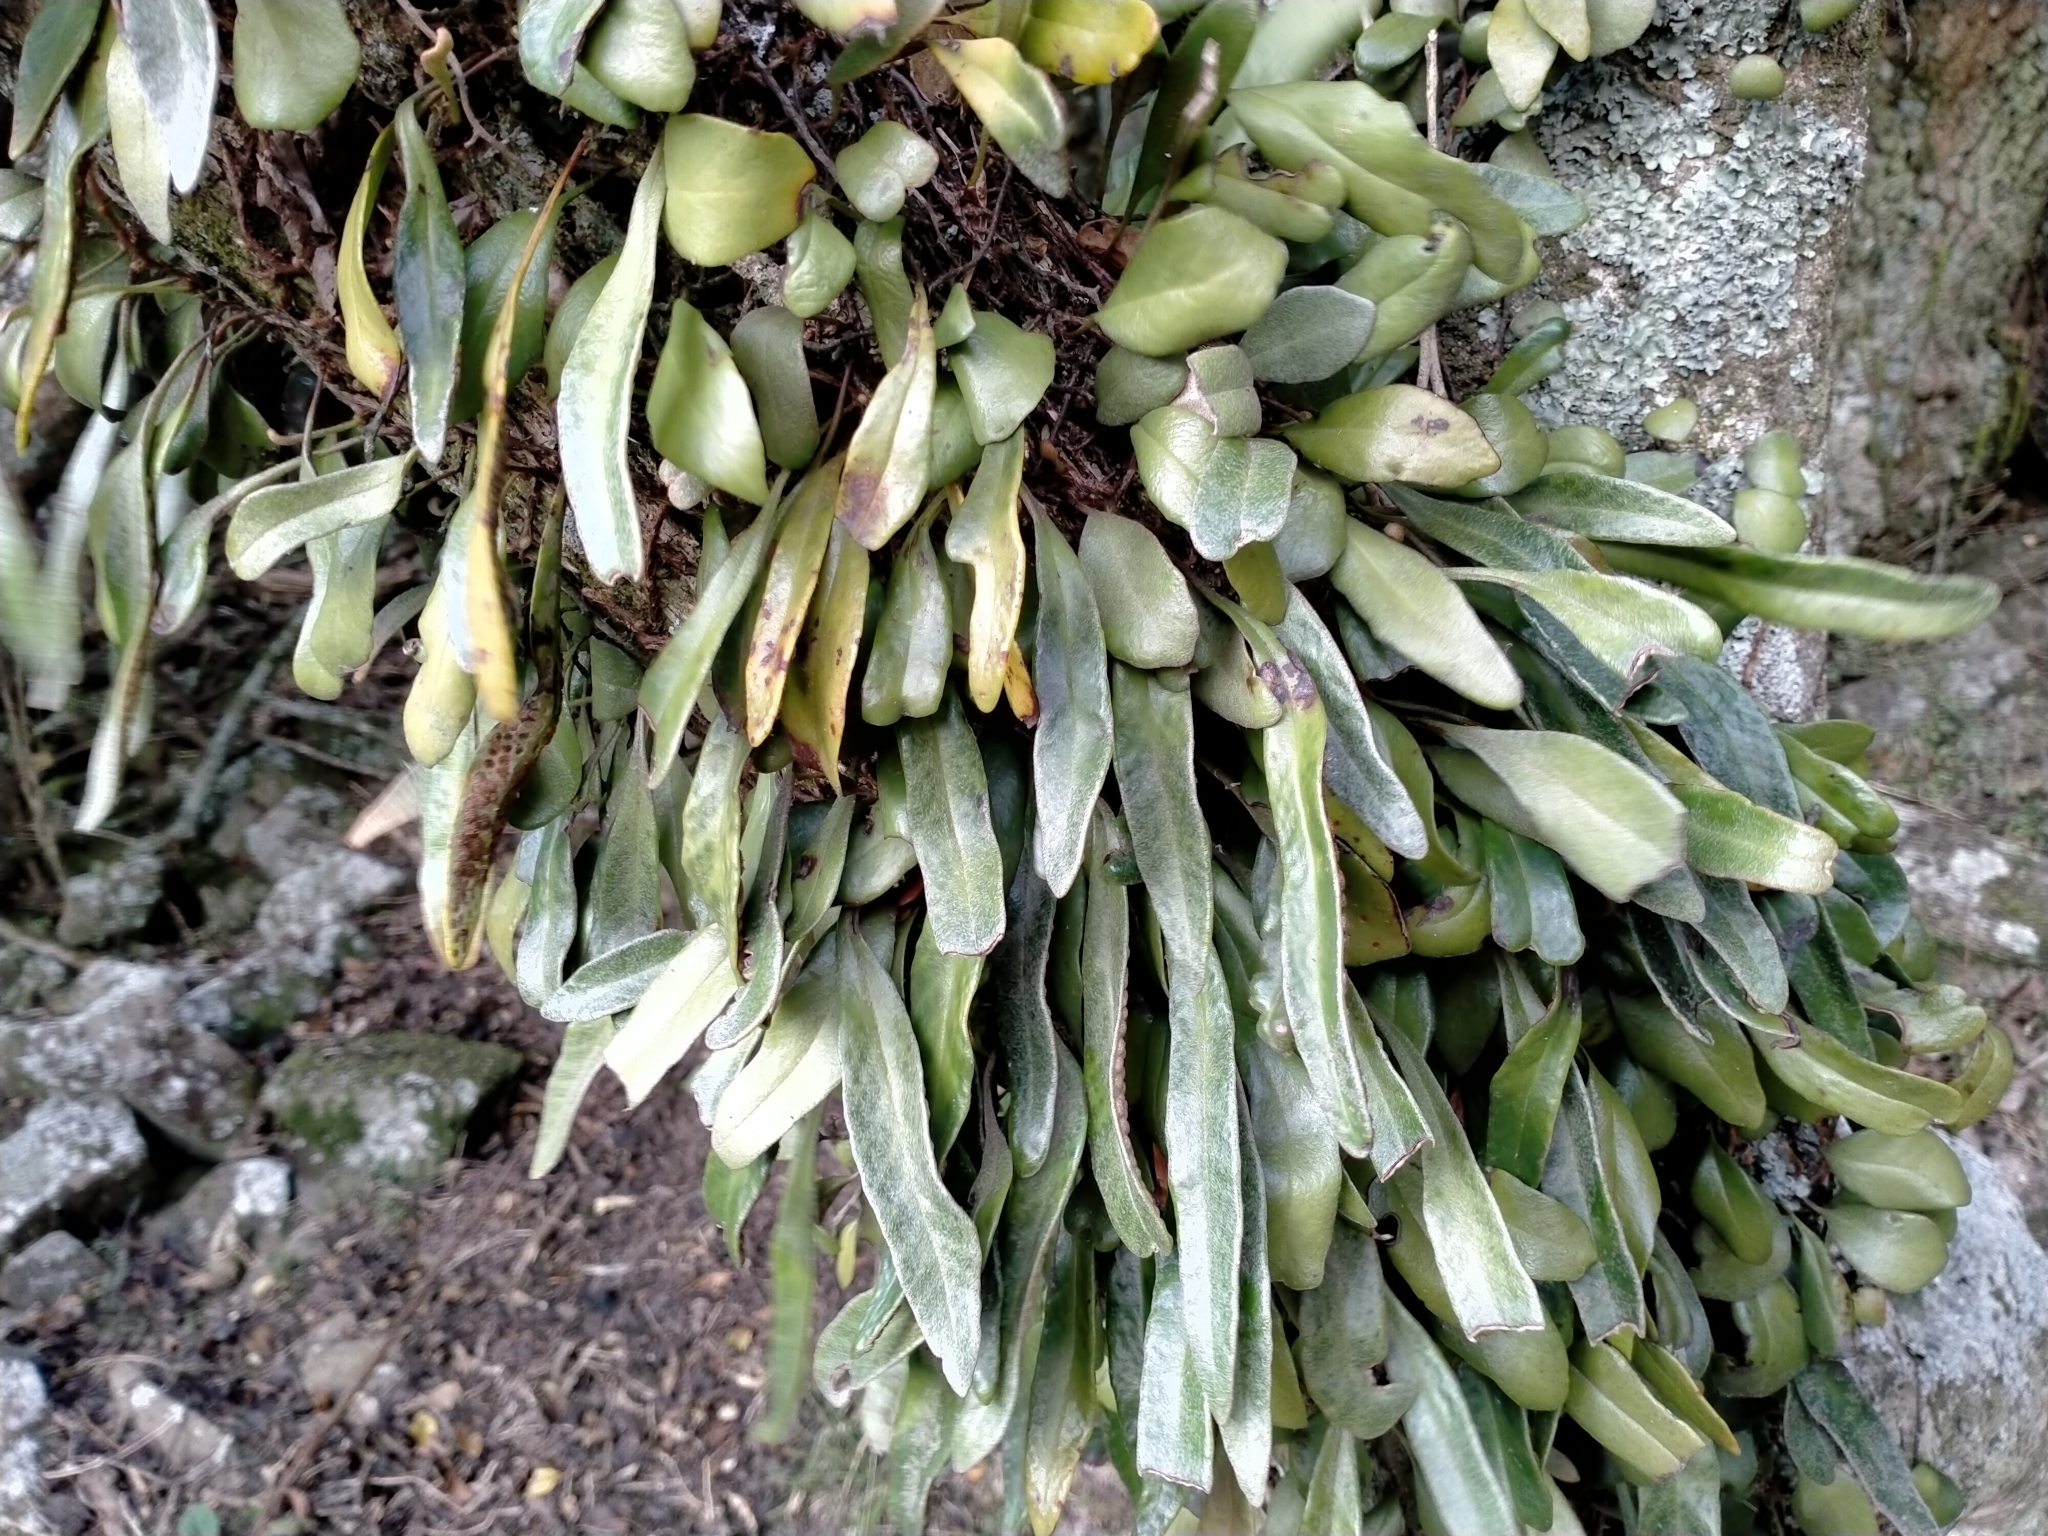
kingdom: Plantae
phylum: Tracheophyta
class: Polypodiopsida
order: Polypodiales
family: Polypodiaceae
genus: Pyrrosia
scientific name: Pyrrosia eleagnifolia
